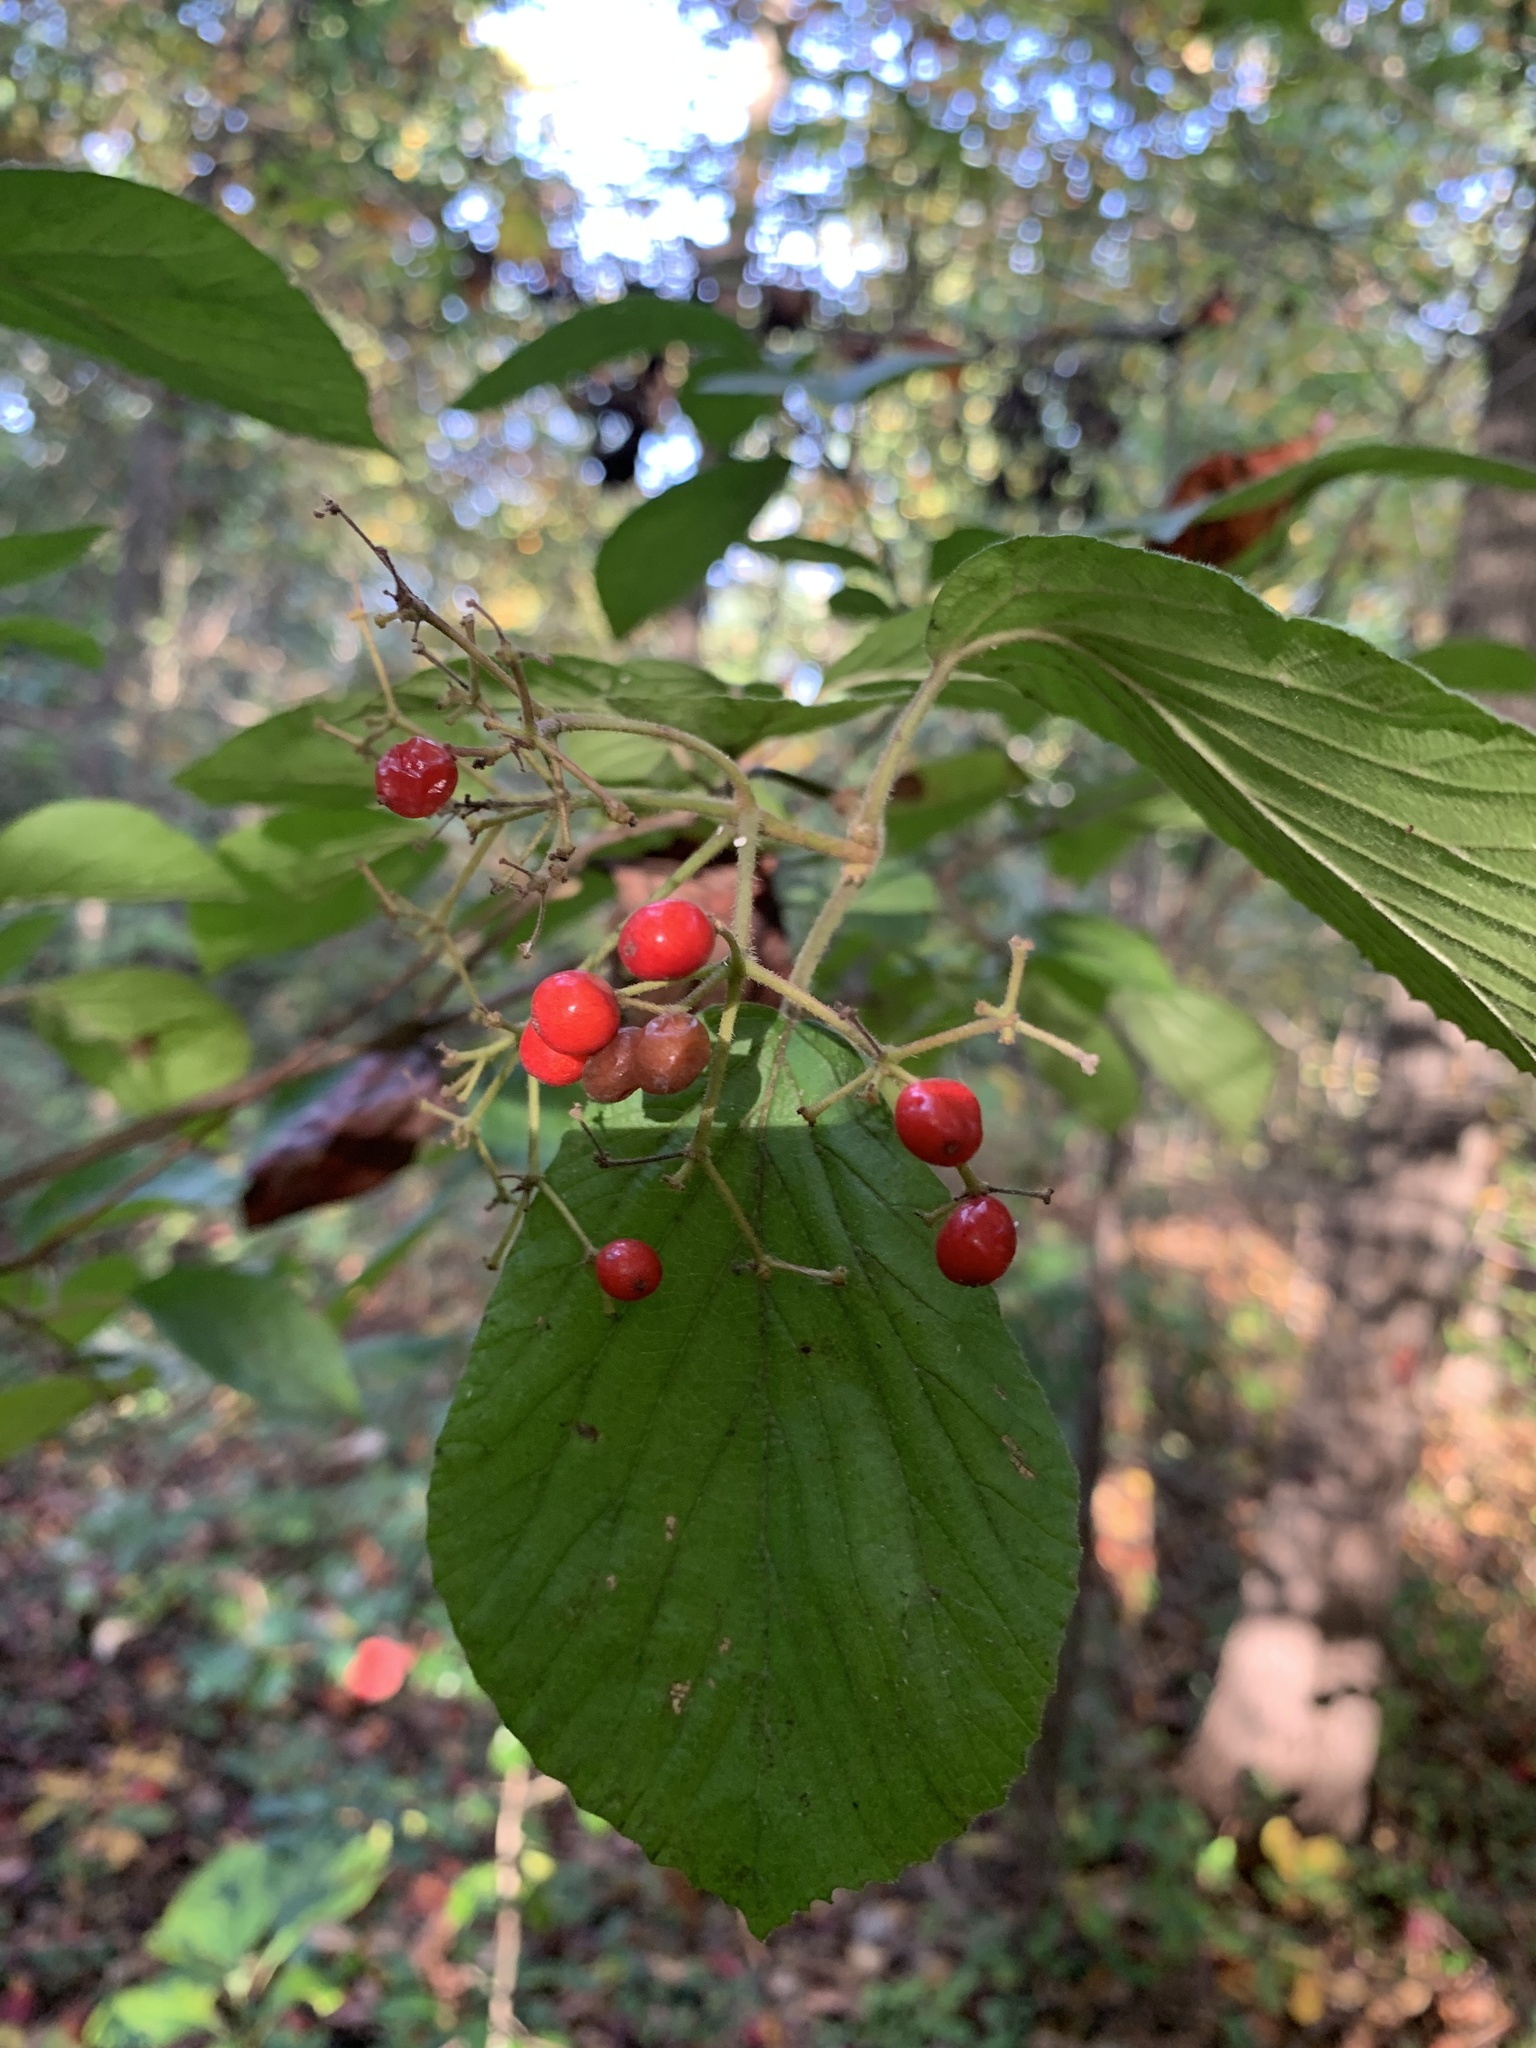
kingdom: Plantae
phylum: Tracheophyta
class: Magnoliopsida
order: Dipsacales
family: Viburnaceae
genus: Viburnum
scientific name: Viburnum dilatatum
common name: Linden arrowwood
